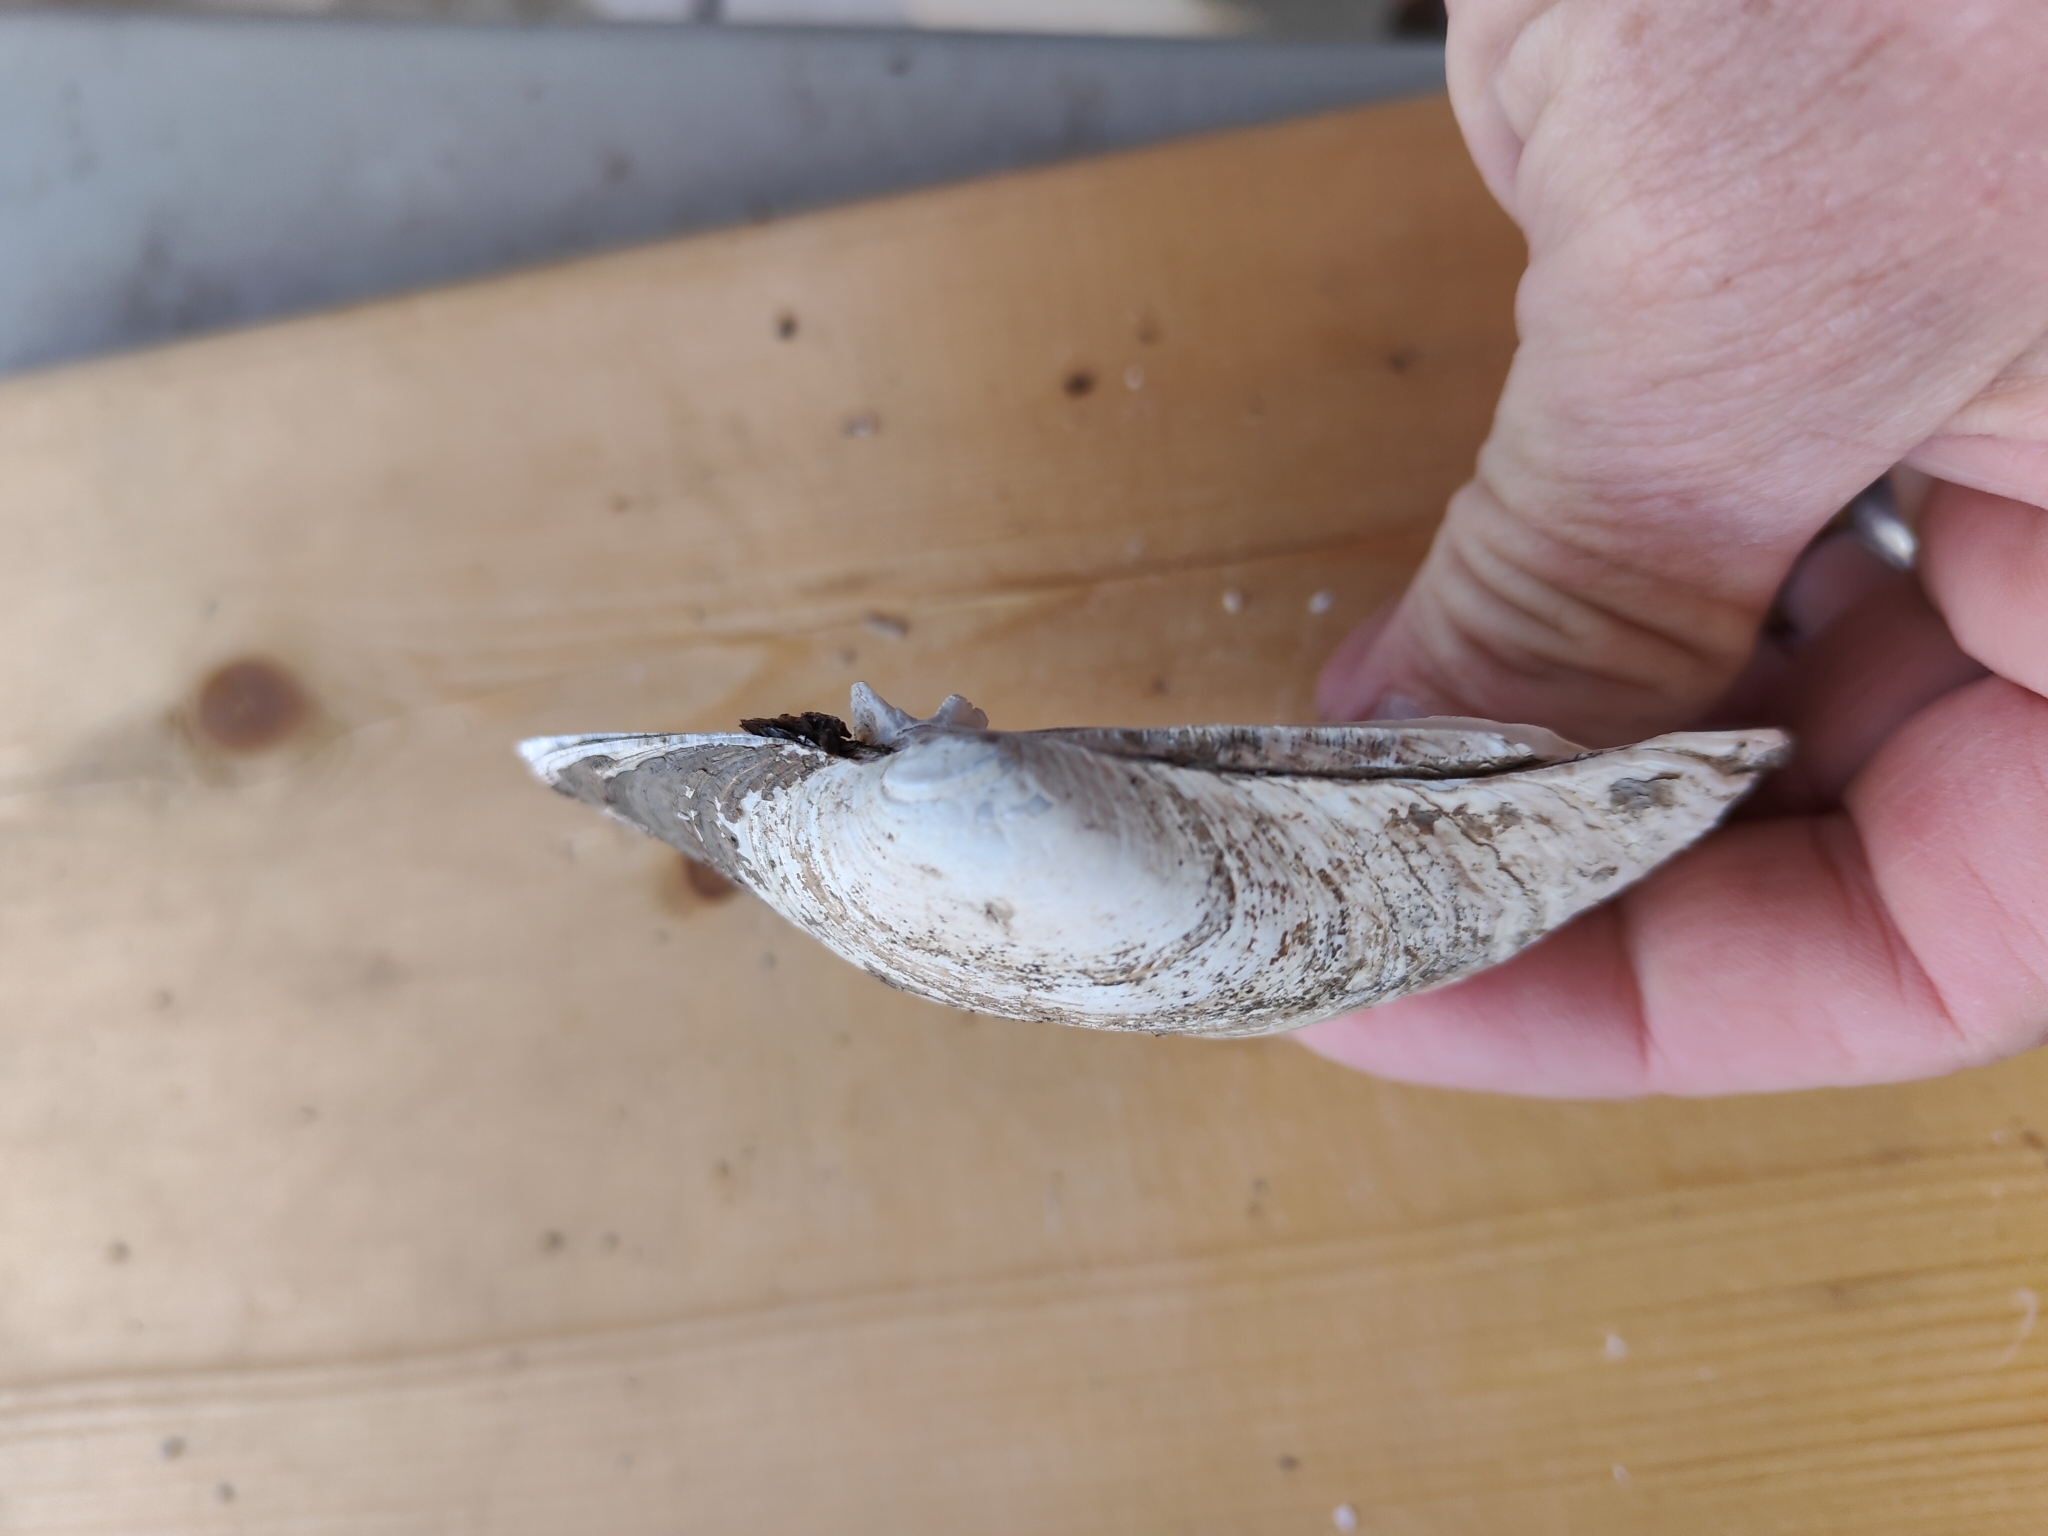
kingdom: Animalia
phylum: Mollusca
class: Bivalvia
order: Unionida
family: Unionidae
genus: Lampsilis
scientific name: Lampsilis cardium
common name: Plain pocketbook
